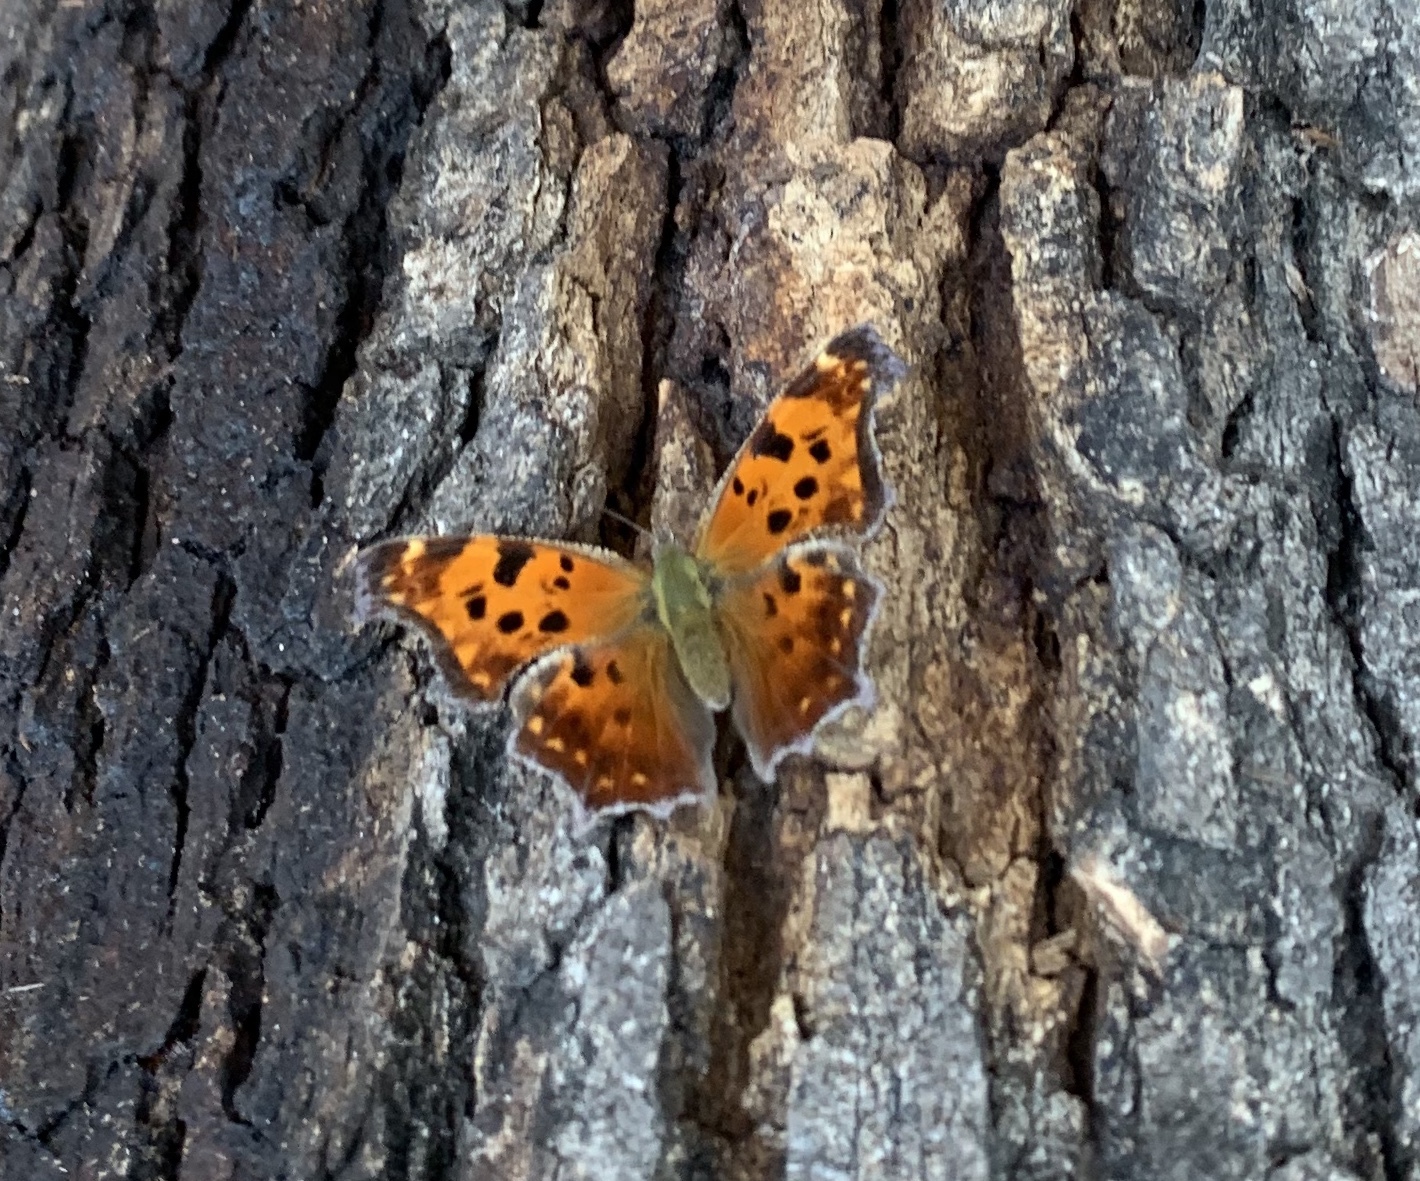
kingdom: Animalia
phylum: Arthropoda
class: Insecta
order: Lepidoptera
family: Nymphalidae
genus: Polygonia
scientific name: Polygonia comma
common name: Eastern comma
